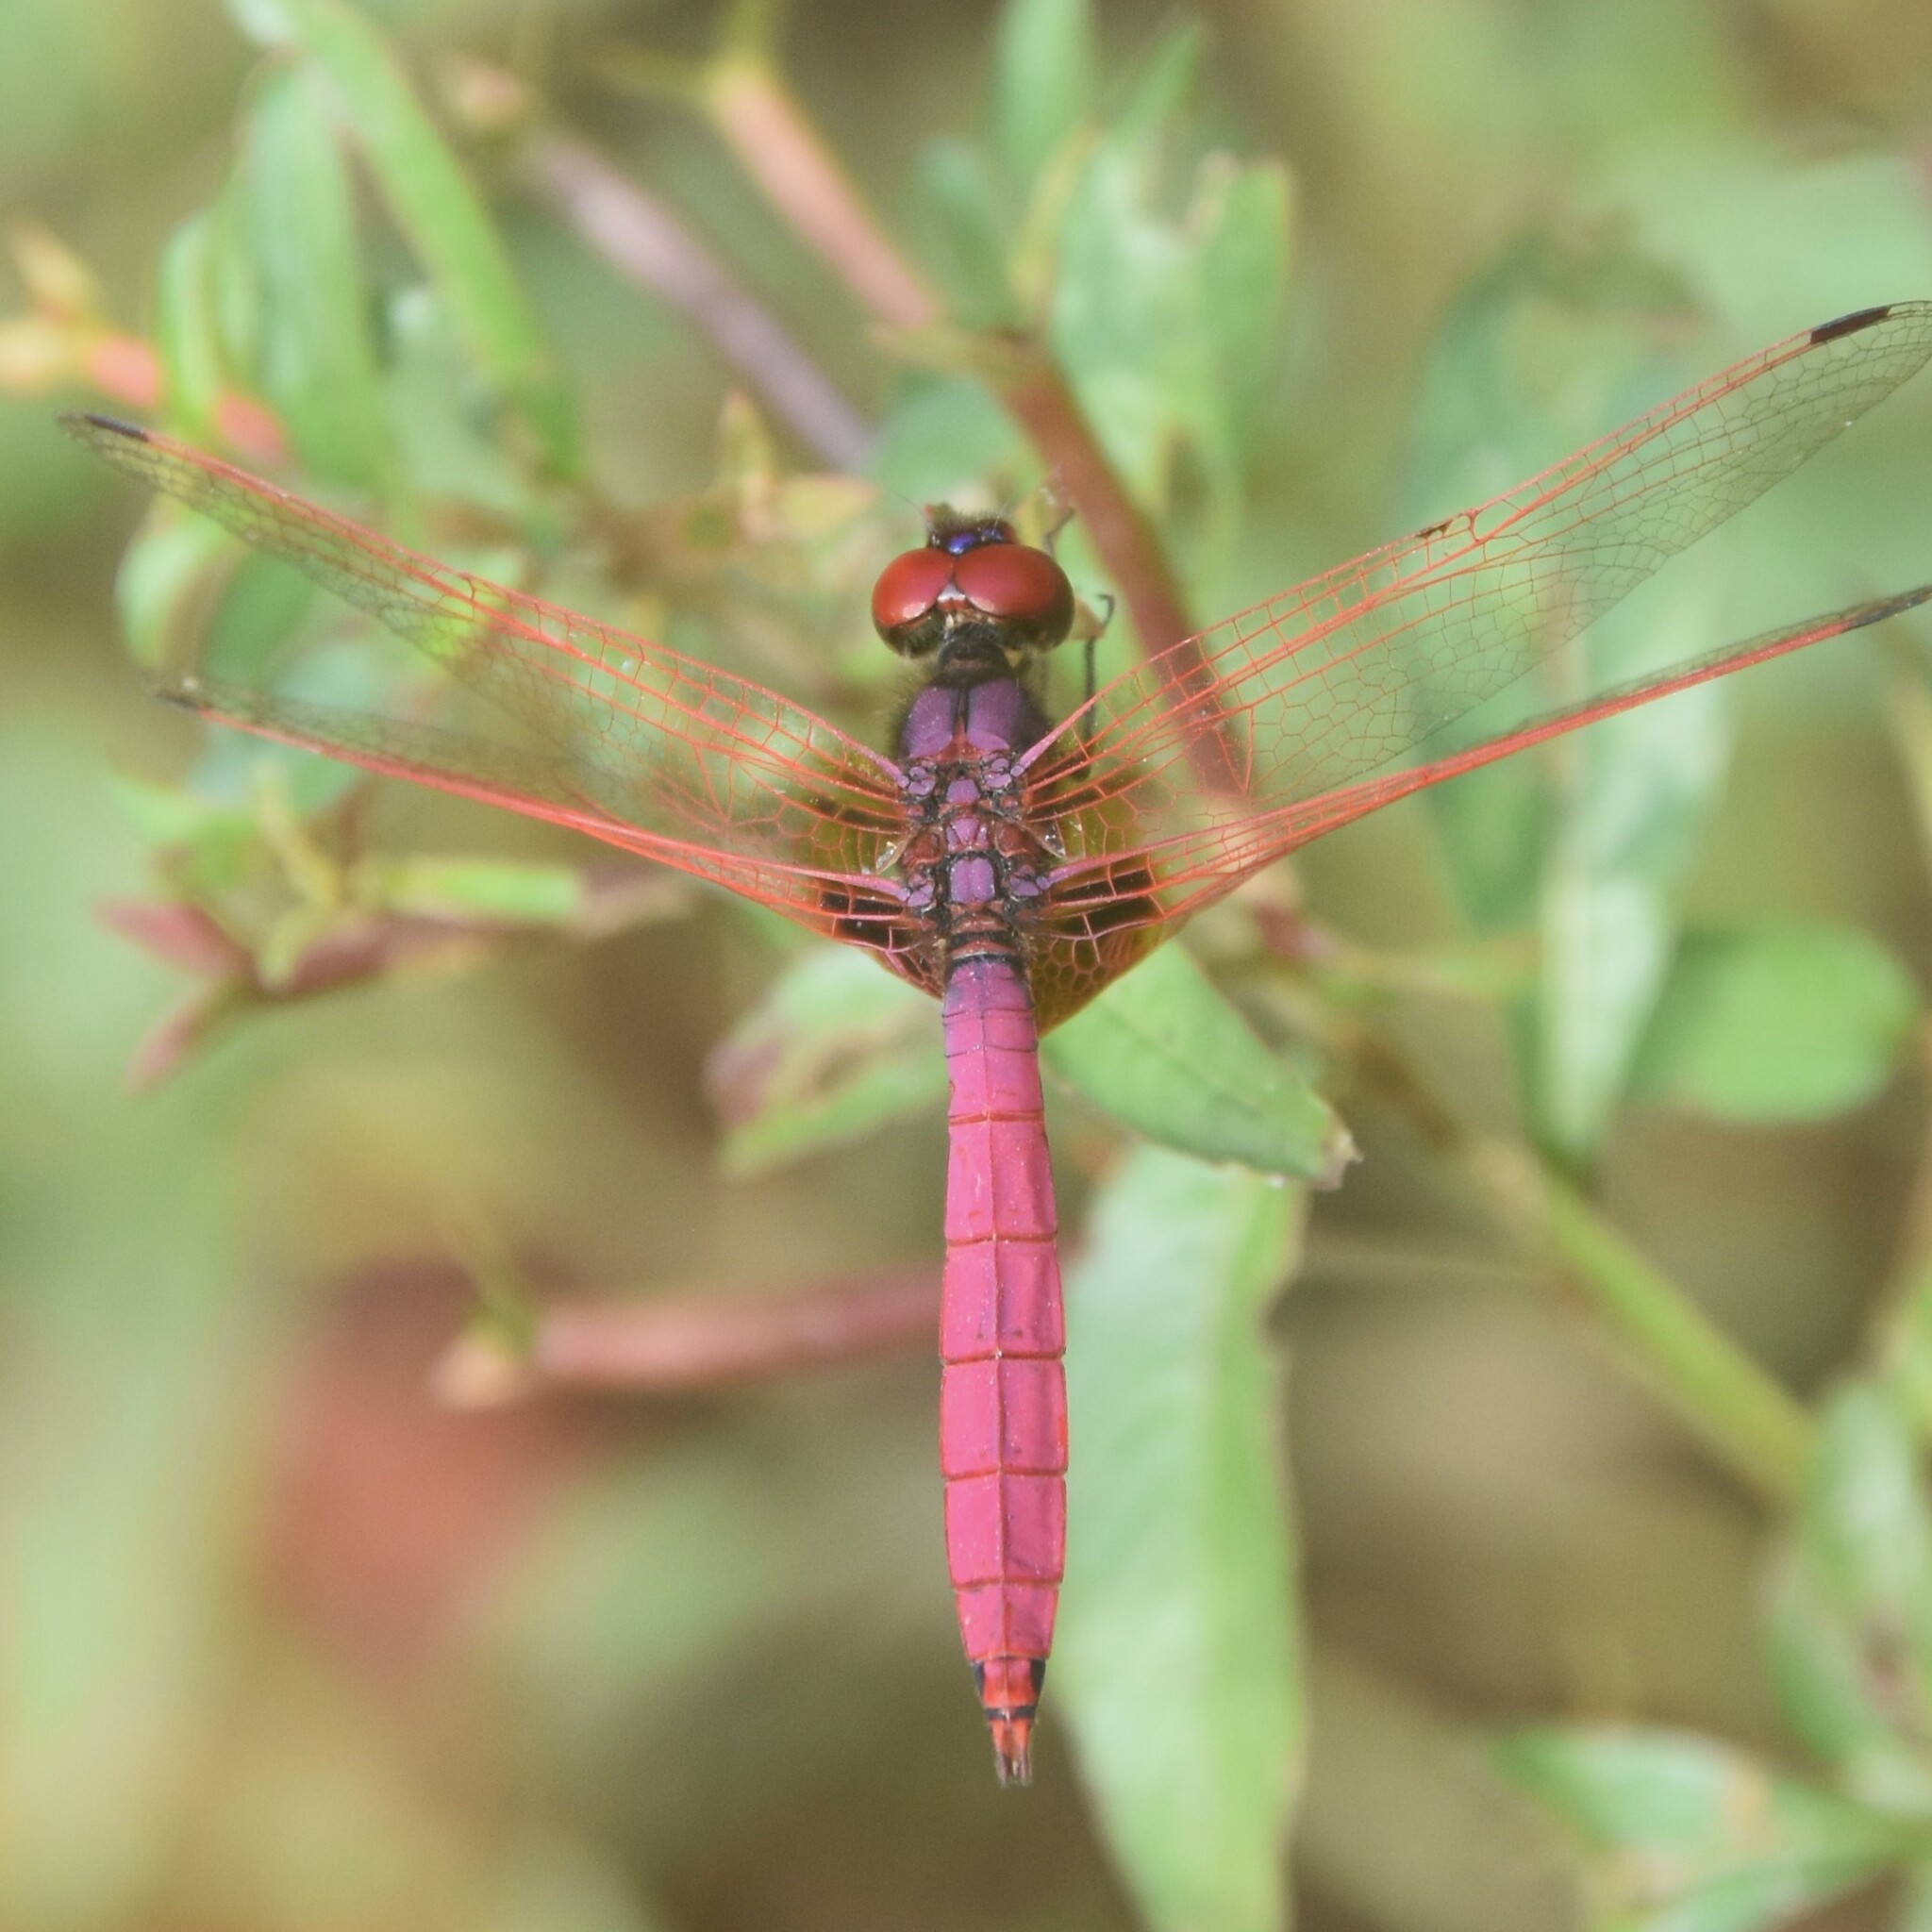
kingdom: Animalia
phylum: Arthropoda
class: Insecta
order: Odonata
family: Libellulidae
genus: Trithemis
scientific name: Trithemis aurora
